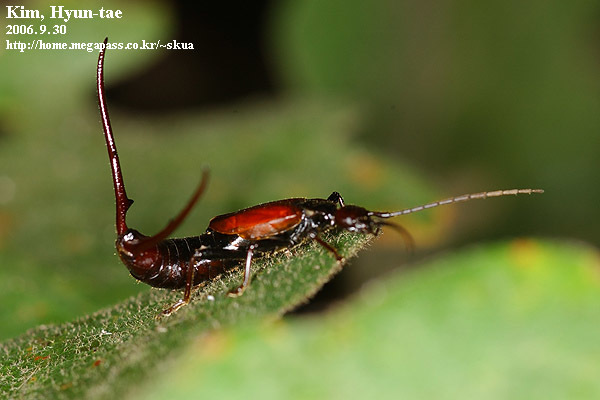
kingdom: Animalia
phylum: Arthropoda
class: Insecta
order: Dermaptera
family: Forficulidae
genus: Timomenus
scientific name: Timomenus komarovi
